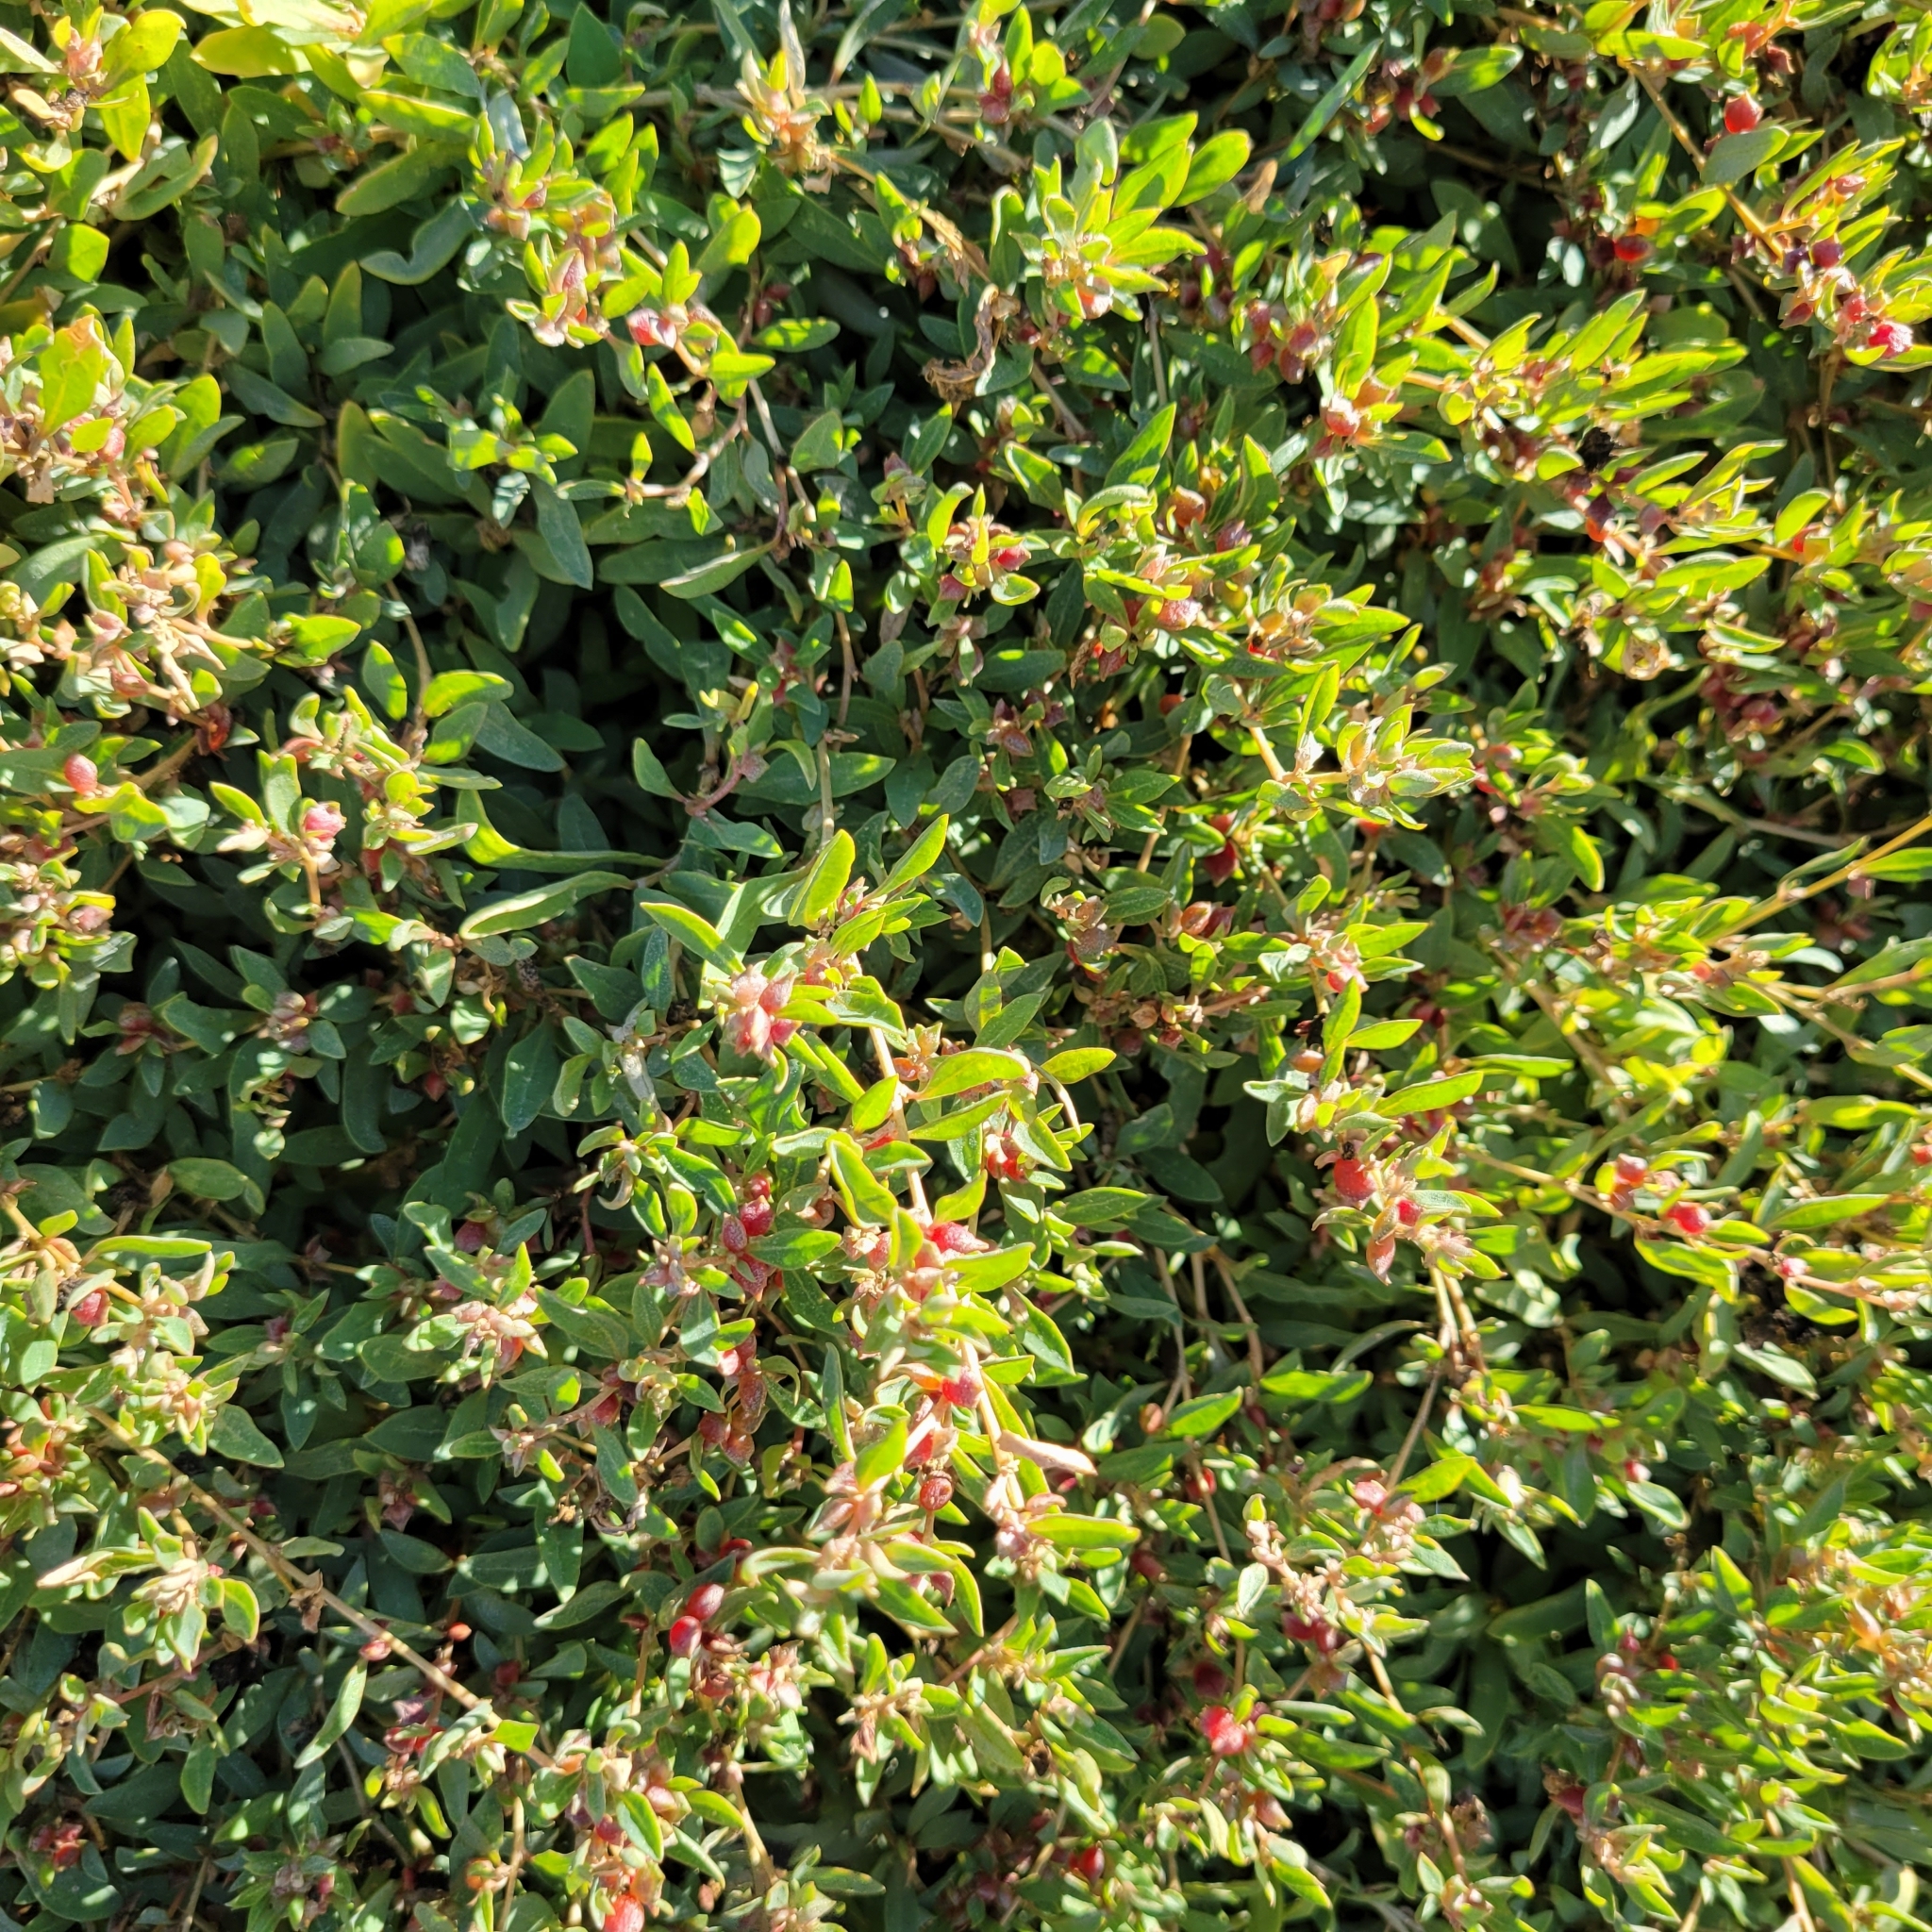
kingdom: Plantae
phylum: Tracheophyta
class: Magnoliopsida
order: Caryophyllales
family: Amaranthaceae
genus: Atriplex
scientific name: Atriplex semibaccata
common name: Australian saltbush
